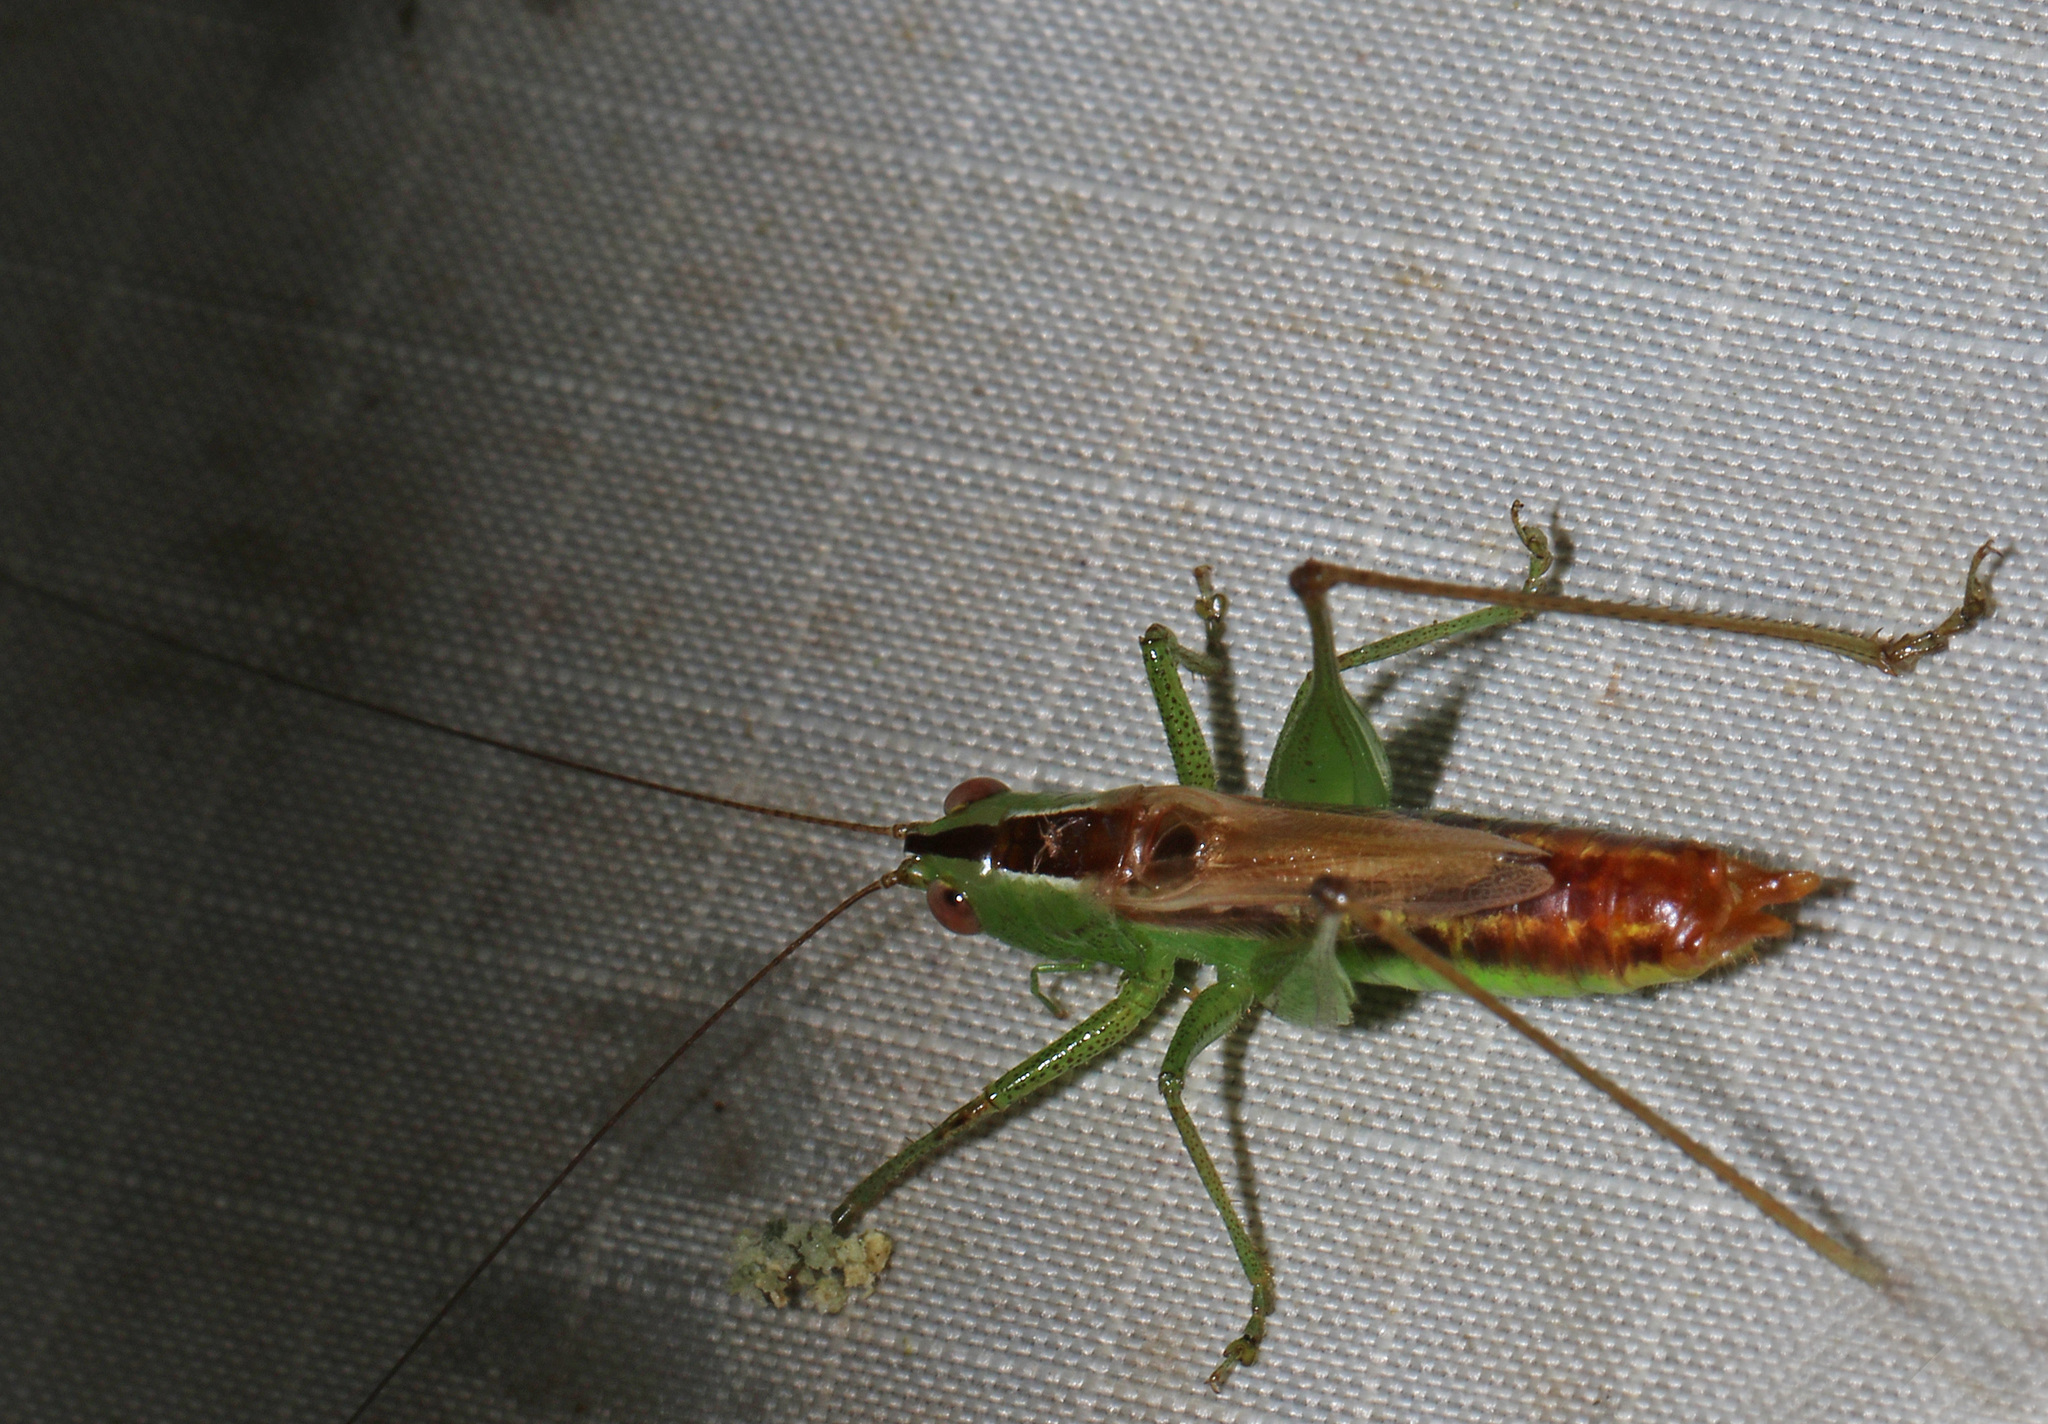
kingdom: Animalia
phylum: Arthropoda
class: Insecta
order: Orthoptera
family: Tettigoniidae
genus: Conocephalus
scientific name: Conocephalus brevipennis
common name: Short-winged meadow katydid
